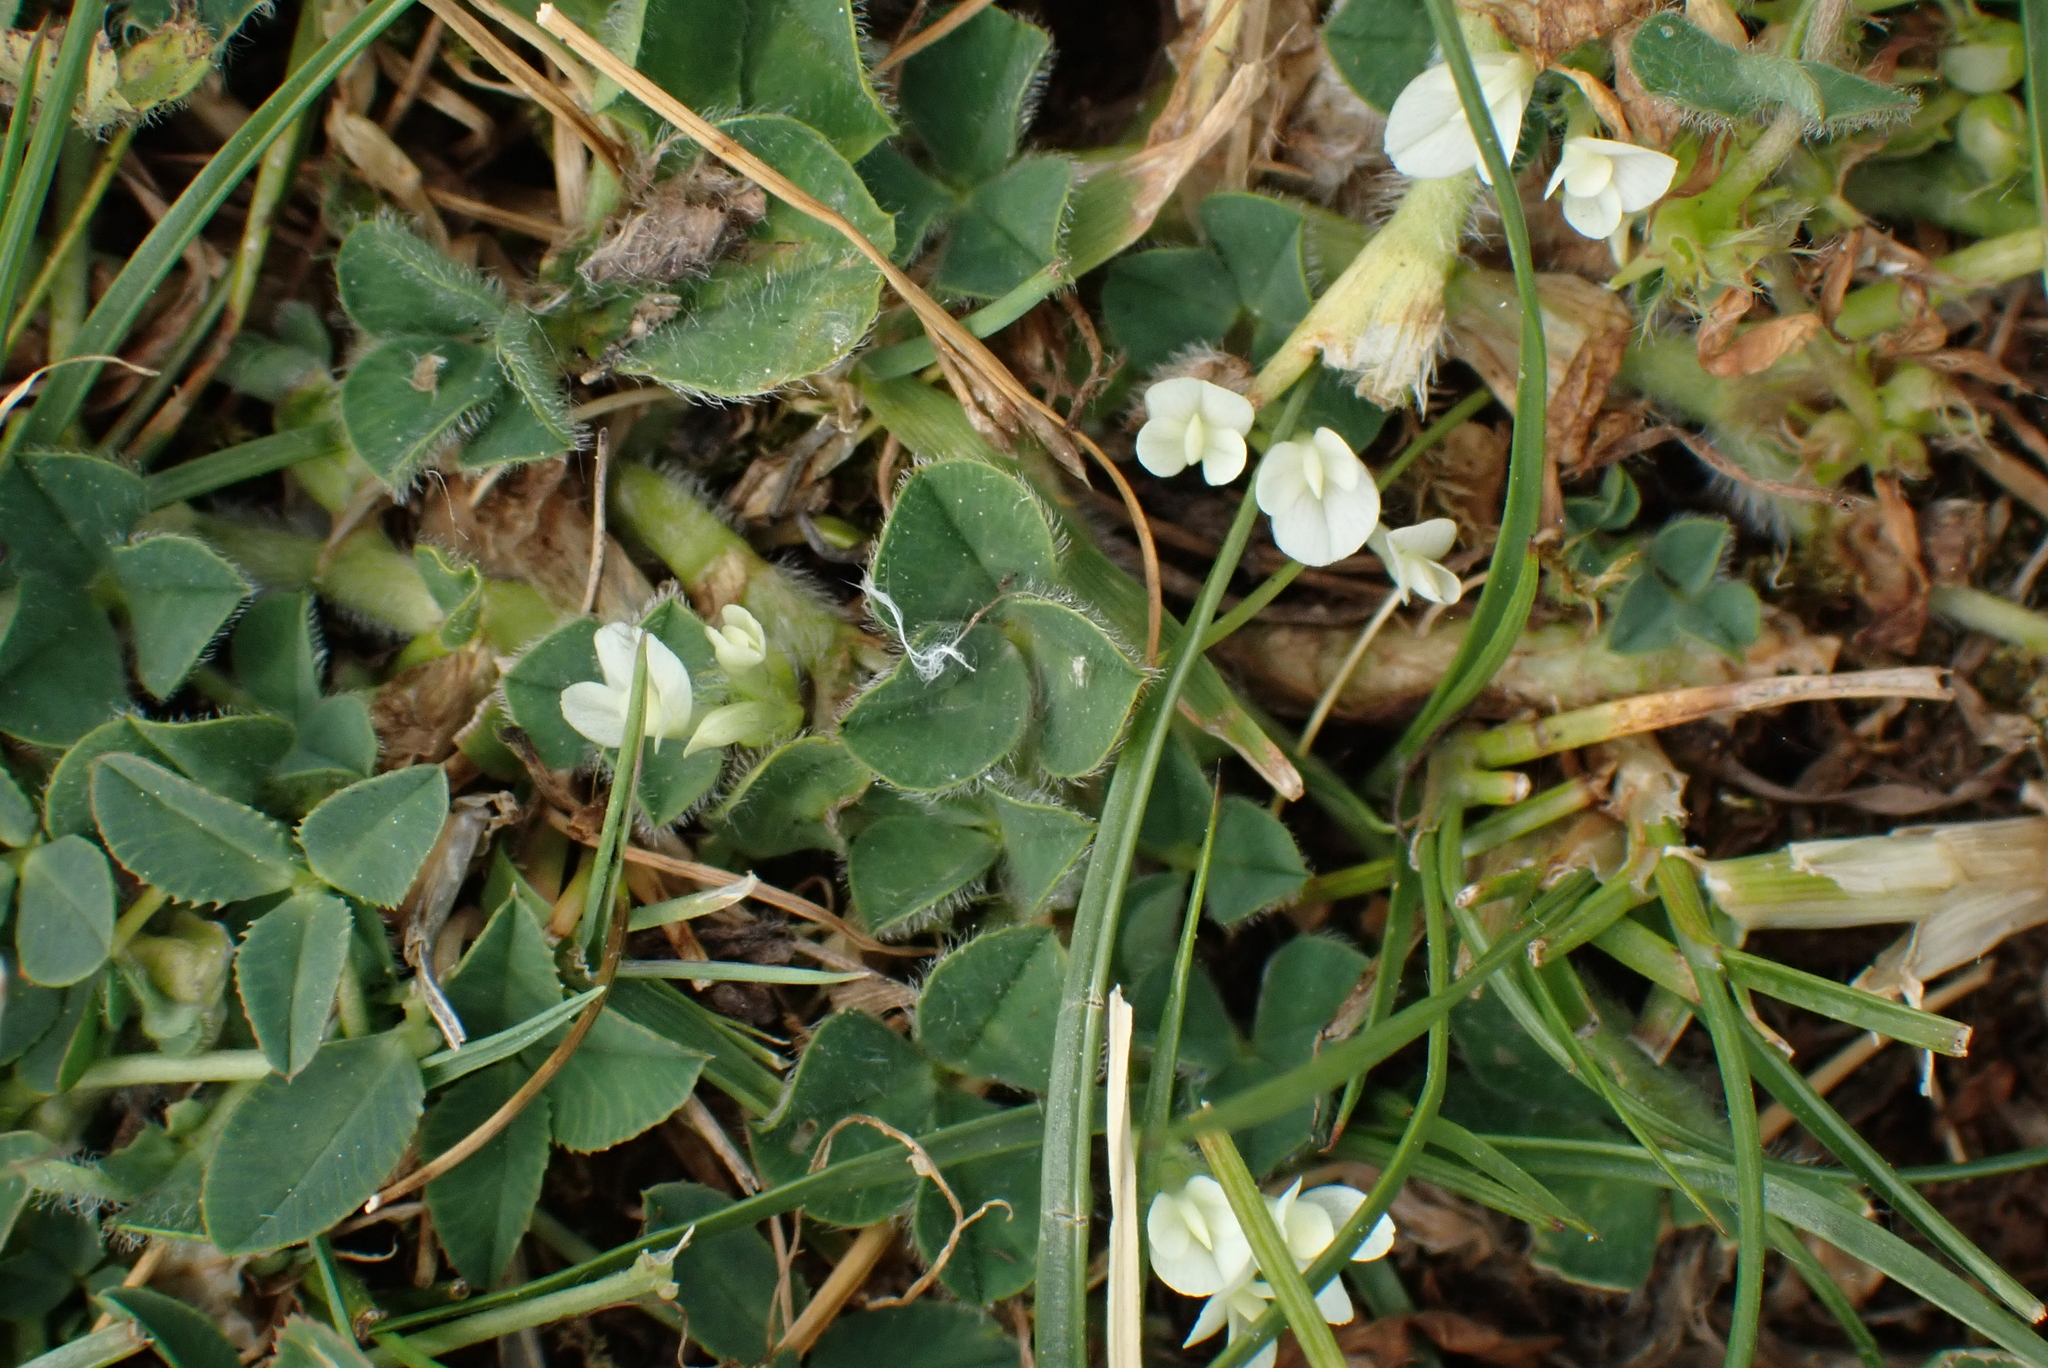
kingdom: Plantae
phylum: Tracheophyta
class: Magnoliopsida
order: Fabales
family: Fabaceae
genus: Trifolium
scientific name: Trifolium subterraneum
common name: Subterranean clover
